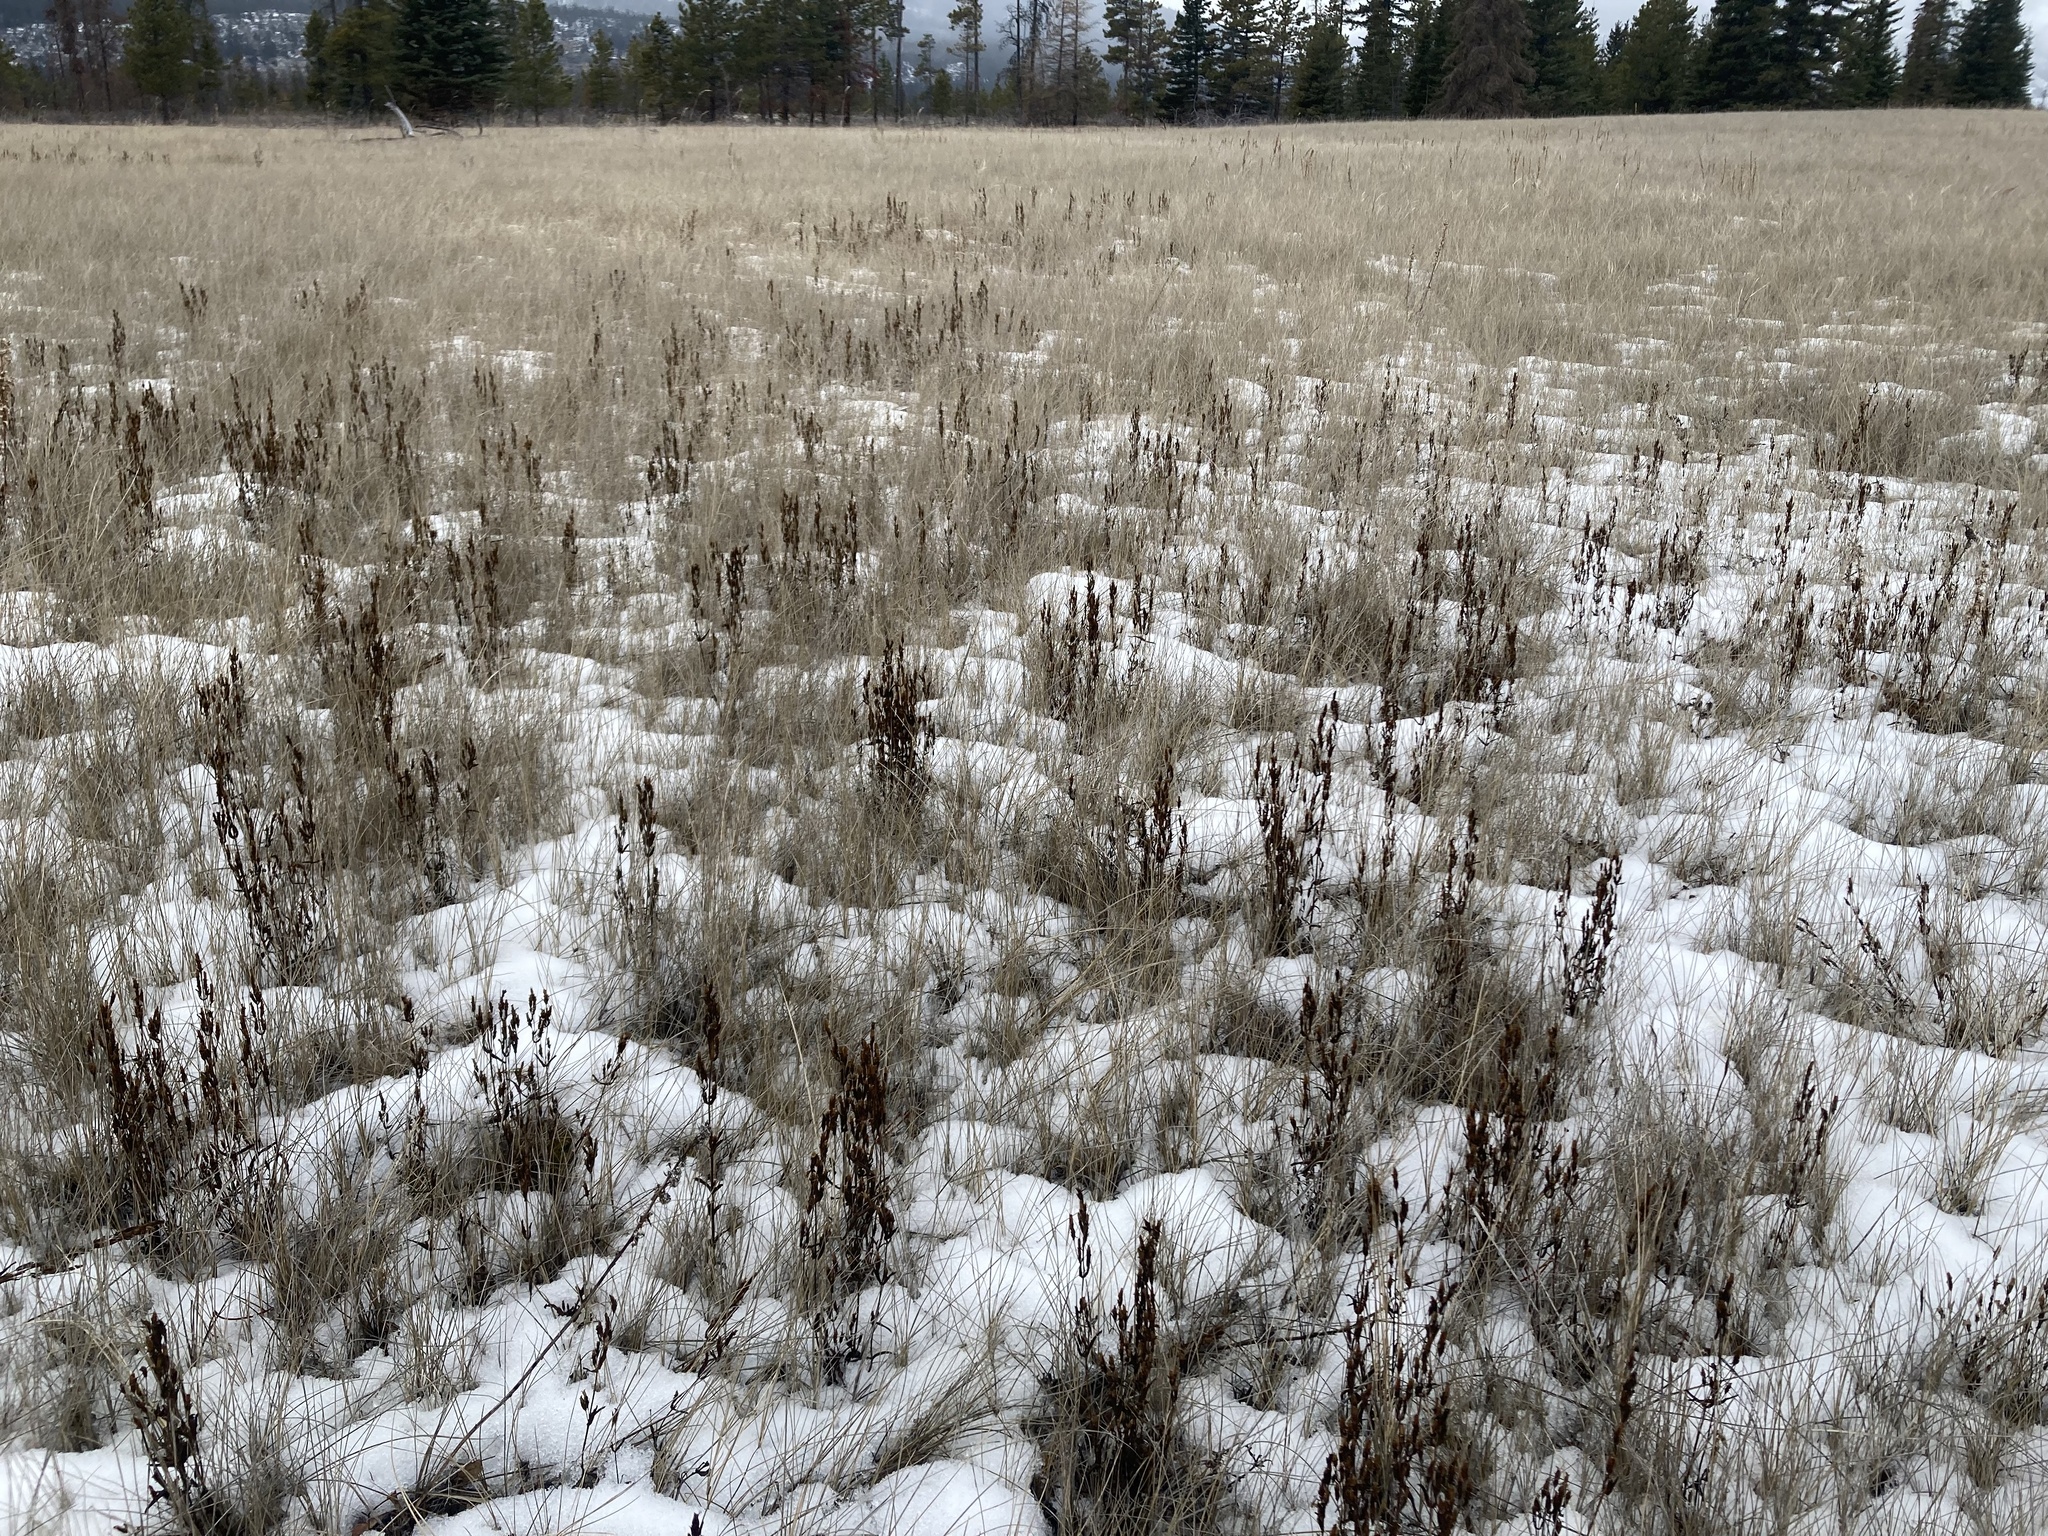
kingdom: Plantae
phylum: Tracheophyta
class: Magnoliopsida
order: Gentianales
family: Gentianaceae
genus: Gentianella
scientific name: Gentianella amarella
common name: Autumn gentian
